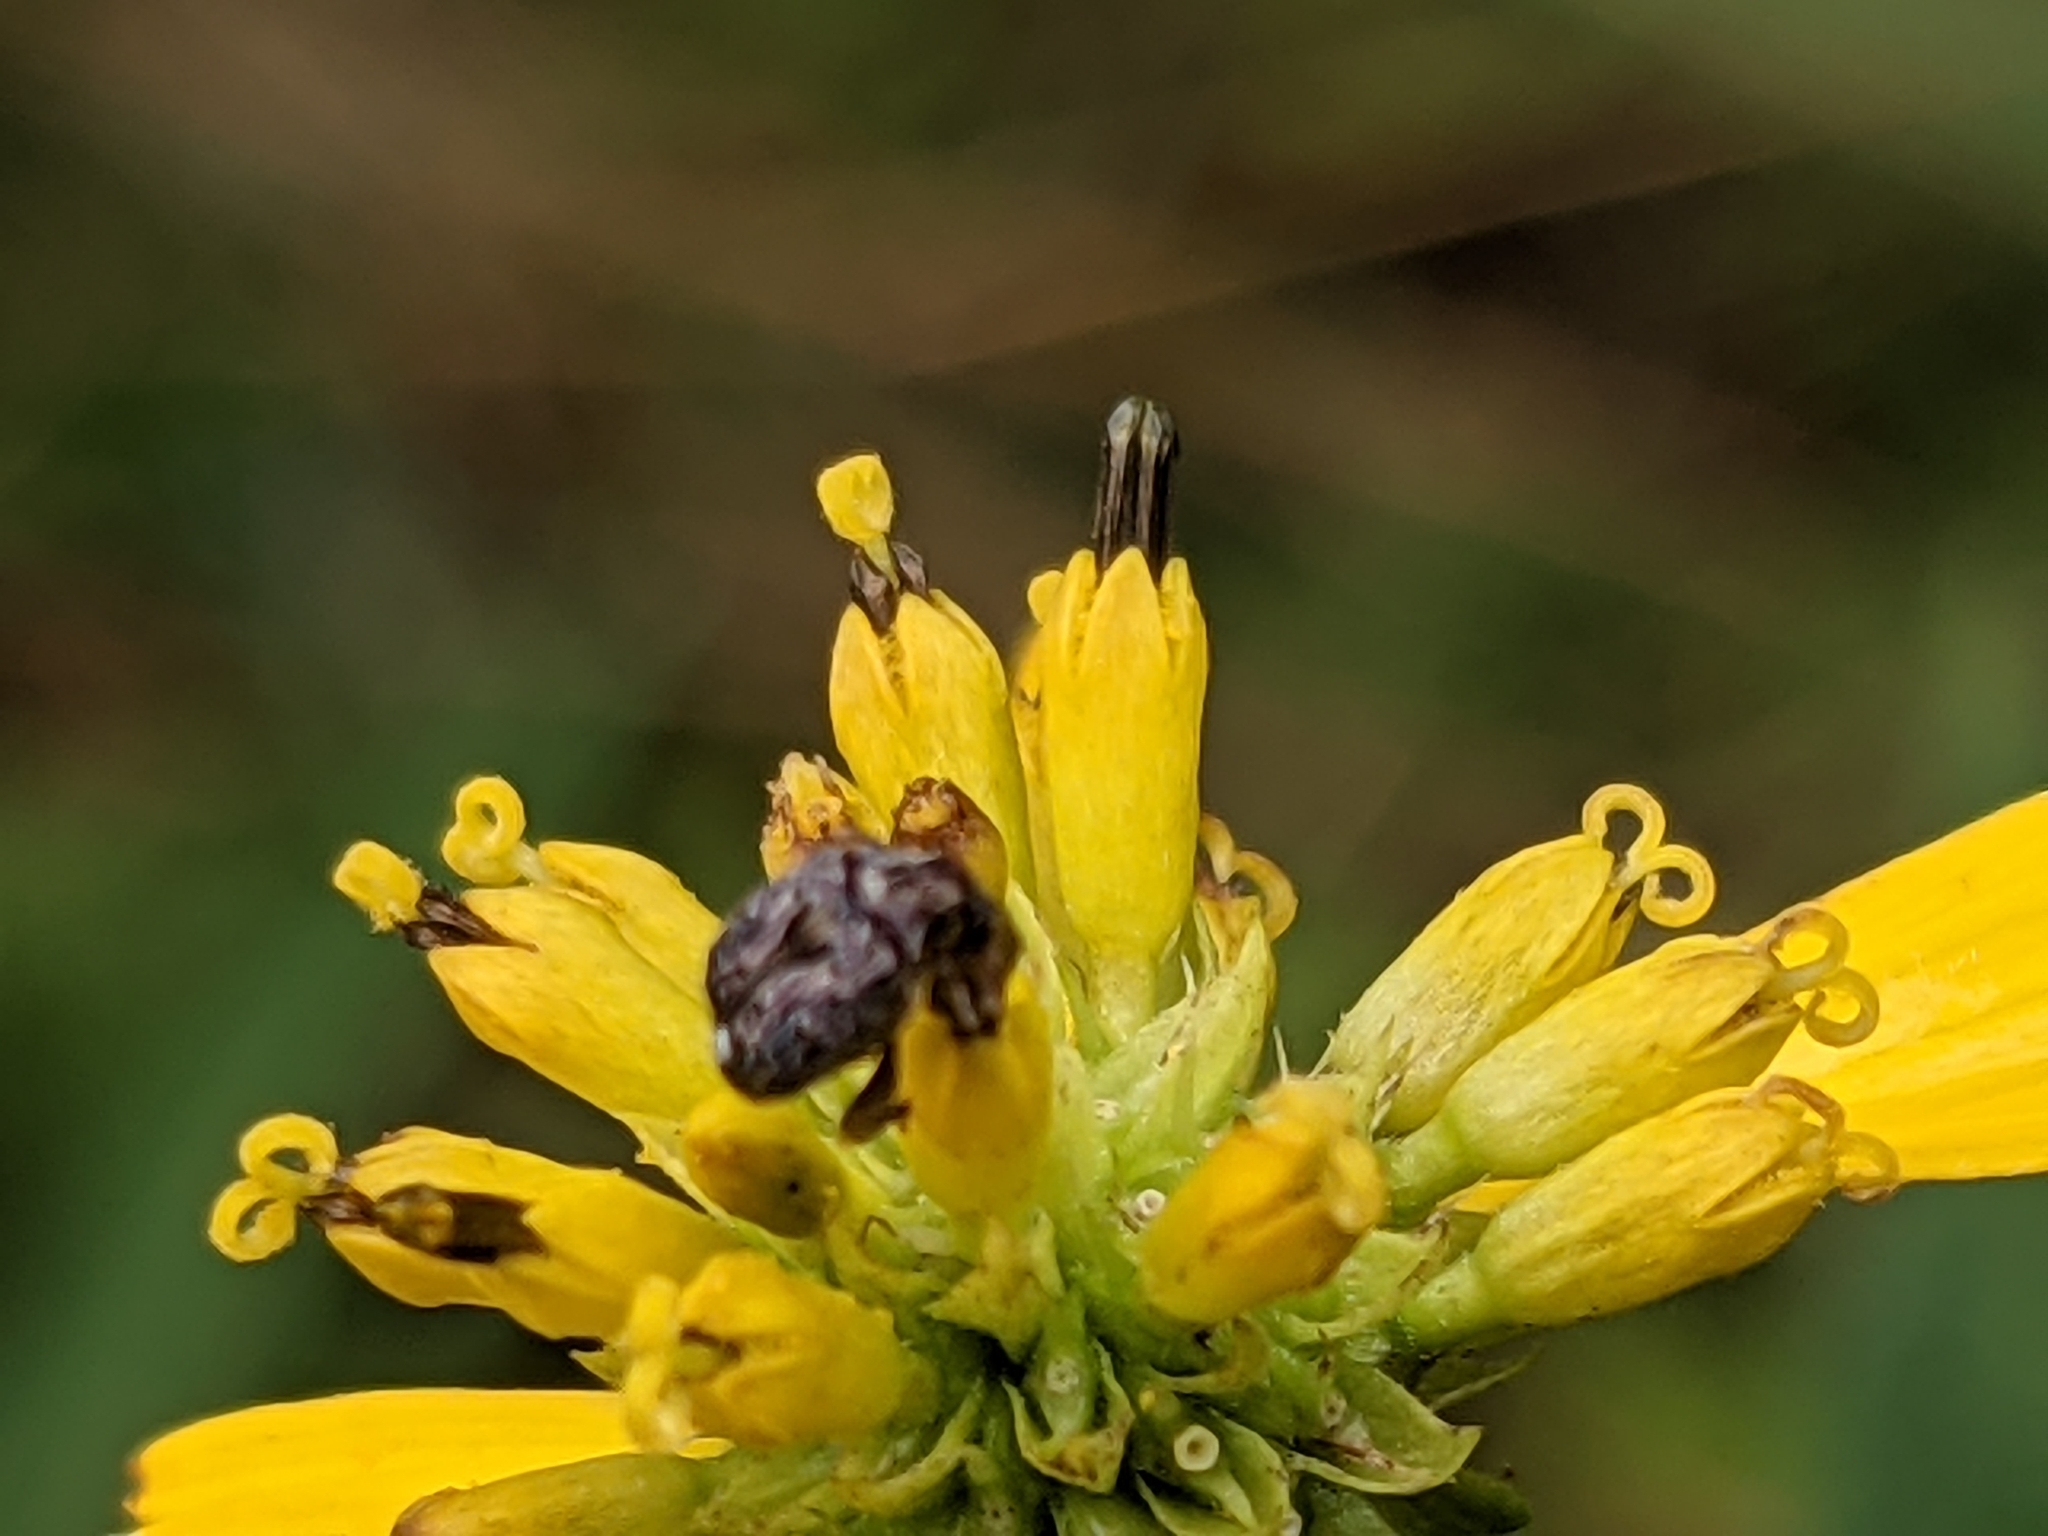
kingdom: Animalia
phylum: Arthropoda
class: Insecta
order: Coleoptera
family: Chrysomelidae
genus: Gibbobruchus
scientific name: Gibbobruchus mimus
